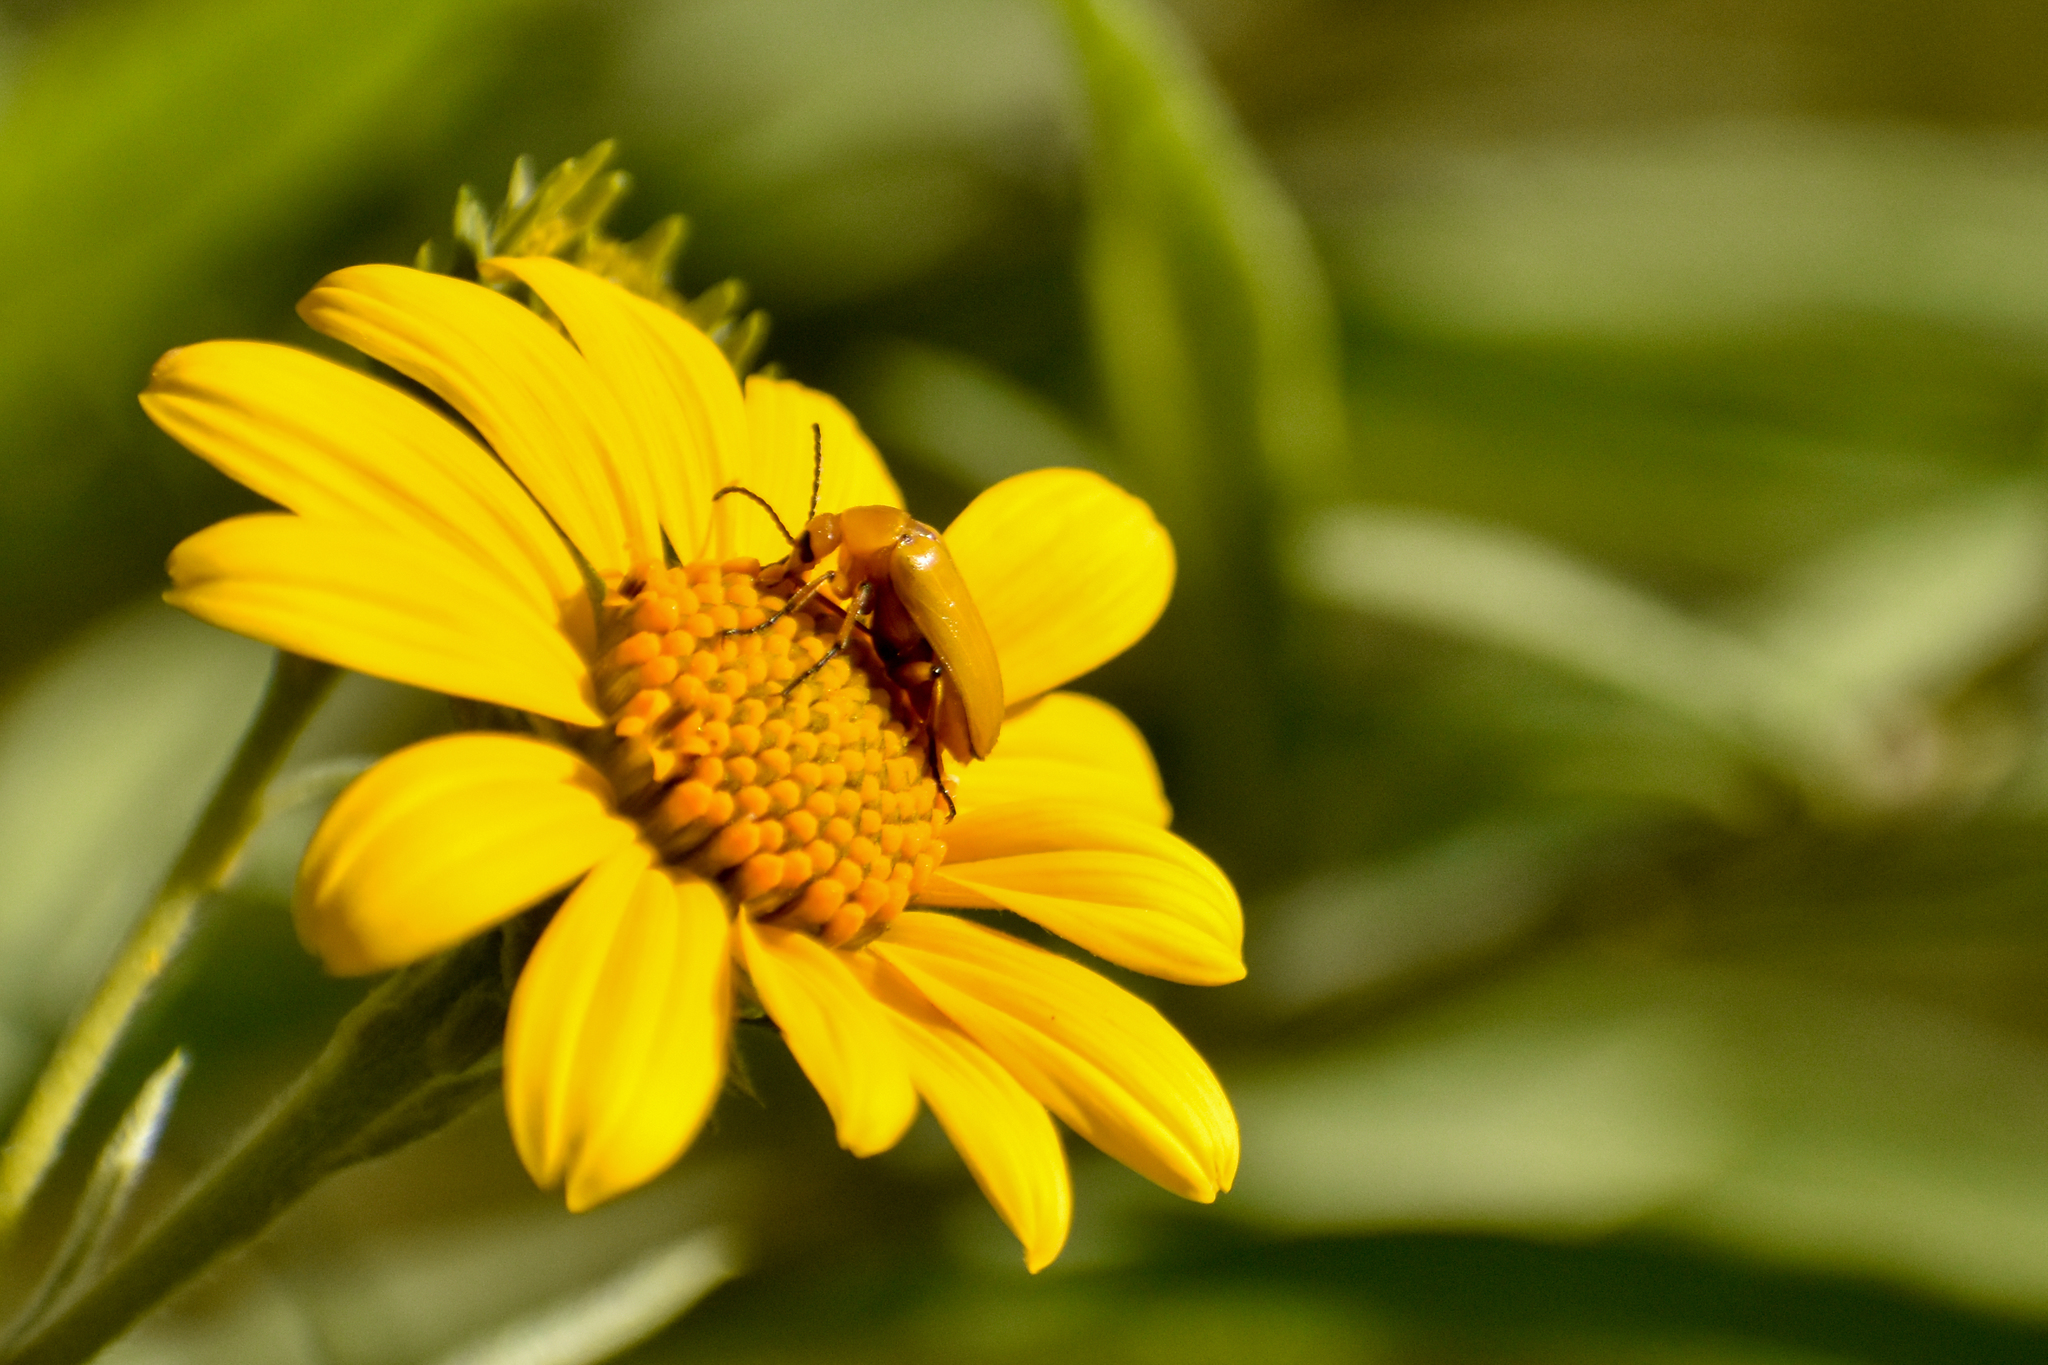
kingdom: Animalia
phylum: Arthropoda
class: Insecta
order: Coleoptera
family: Meloidae
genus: Nemognatha
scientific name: Nemognatha
